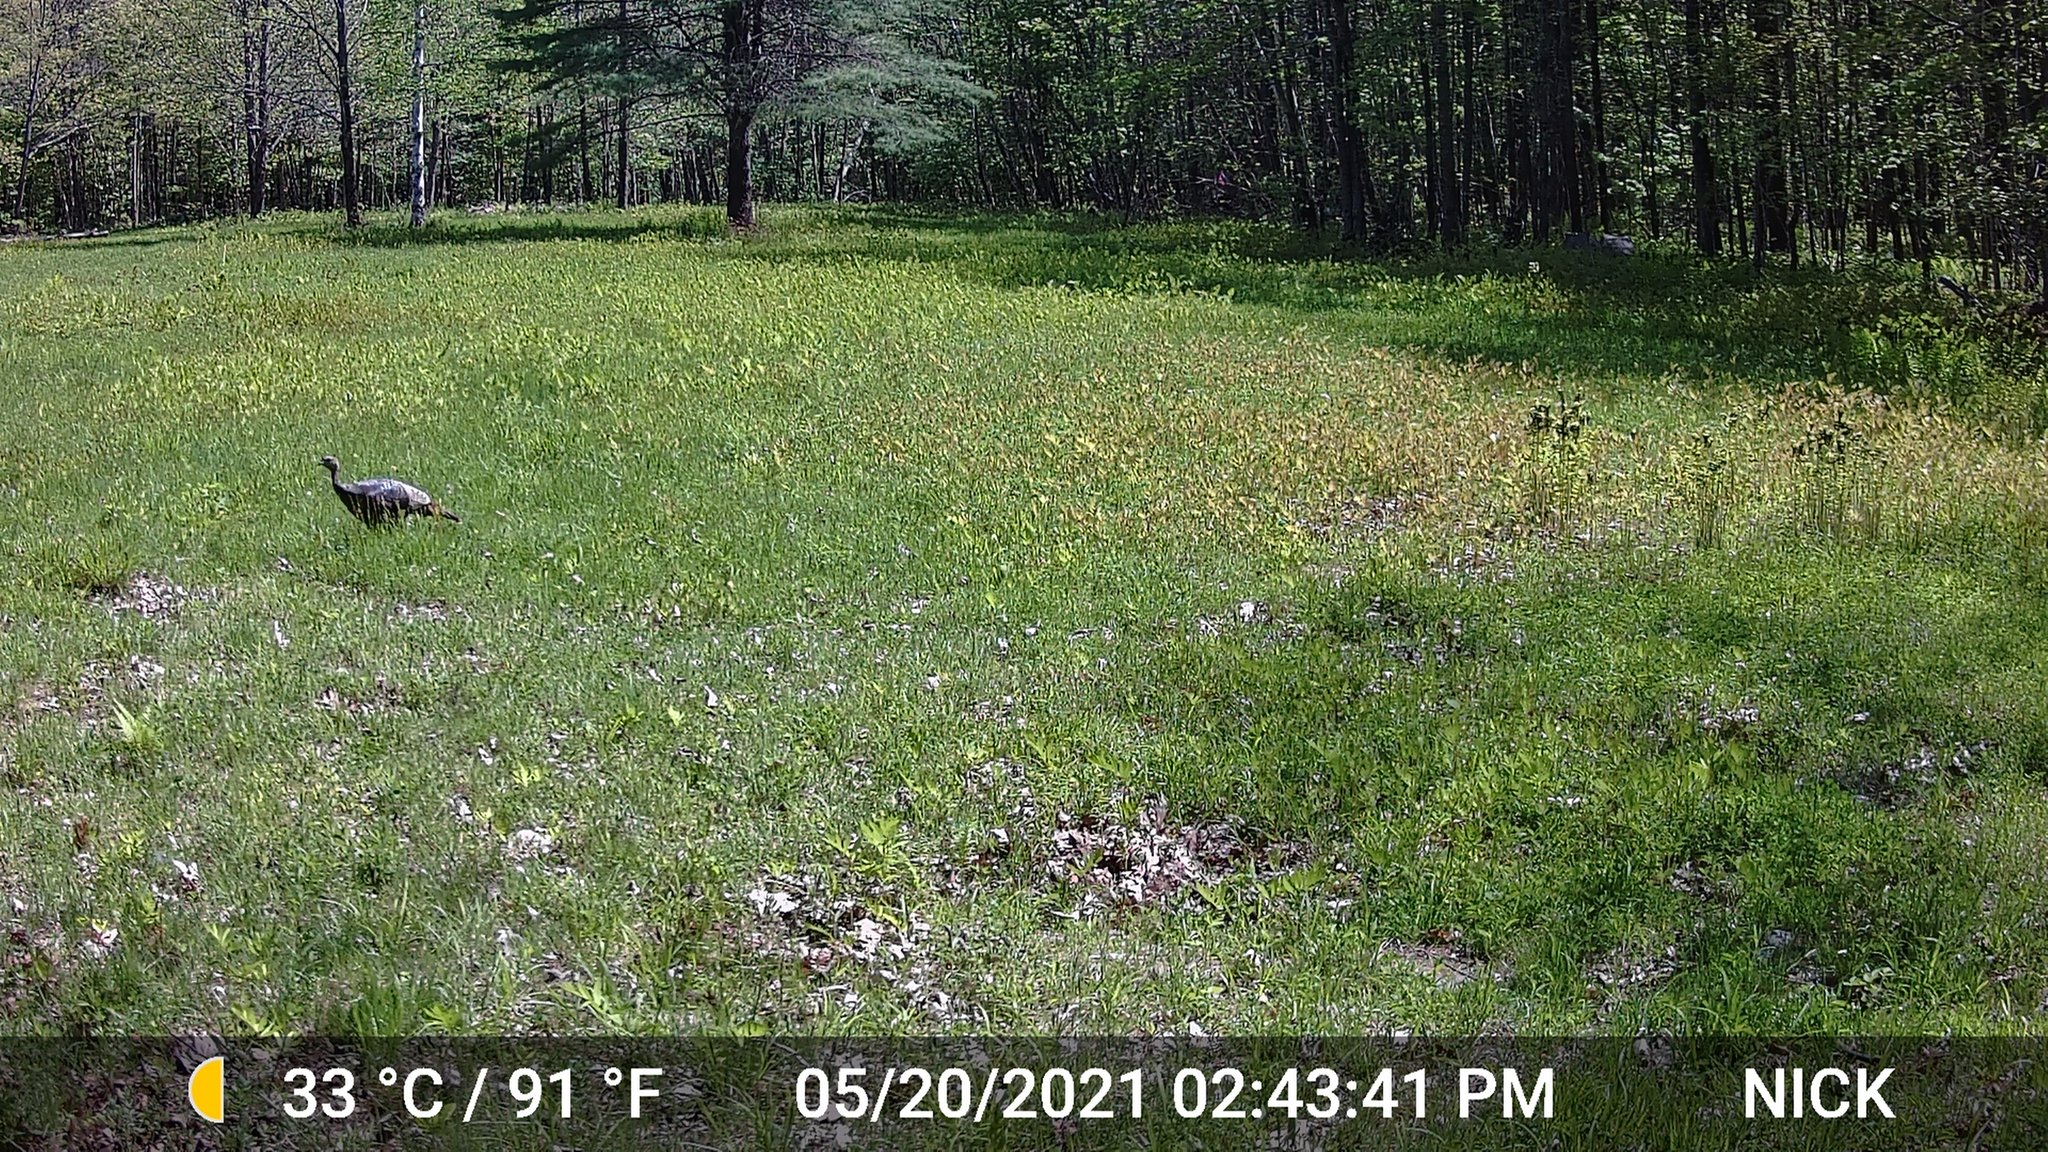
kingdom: Animalia
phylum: Chordata
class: Aves
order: Galliformes
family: Phasianidae
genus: Meleagris
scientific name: Meleagris gallopavo
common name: Wild turkey
